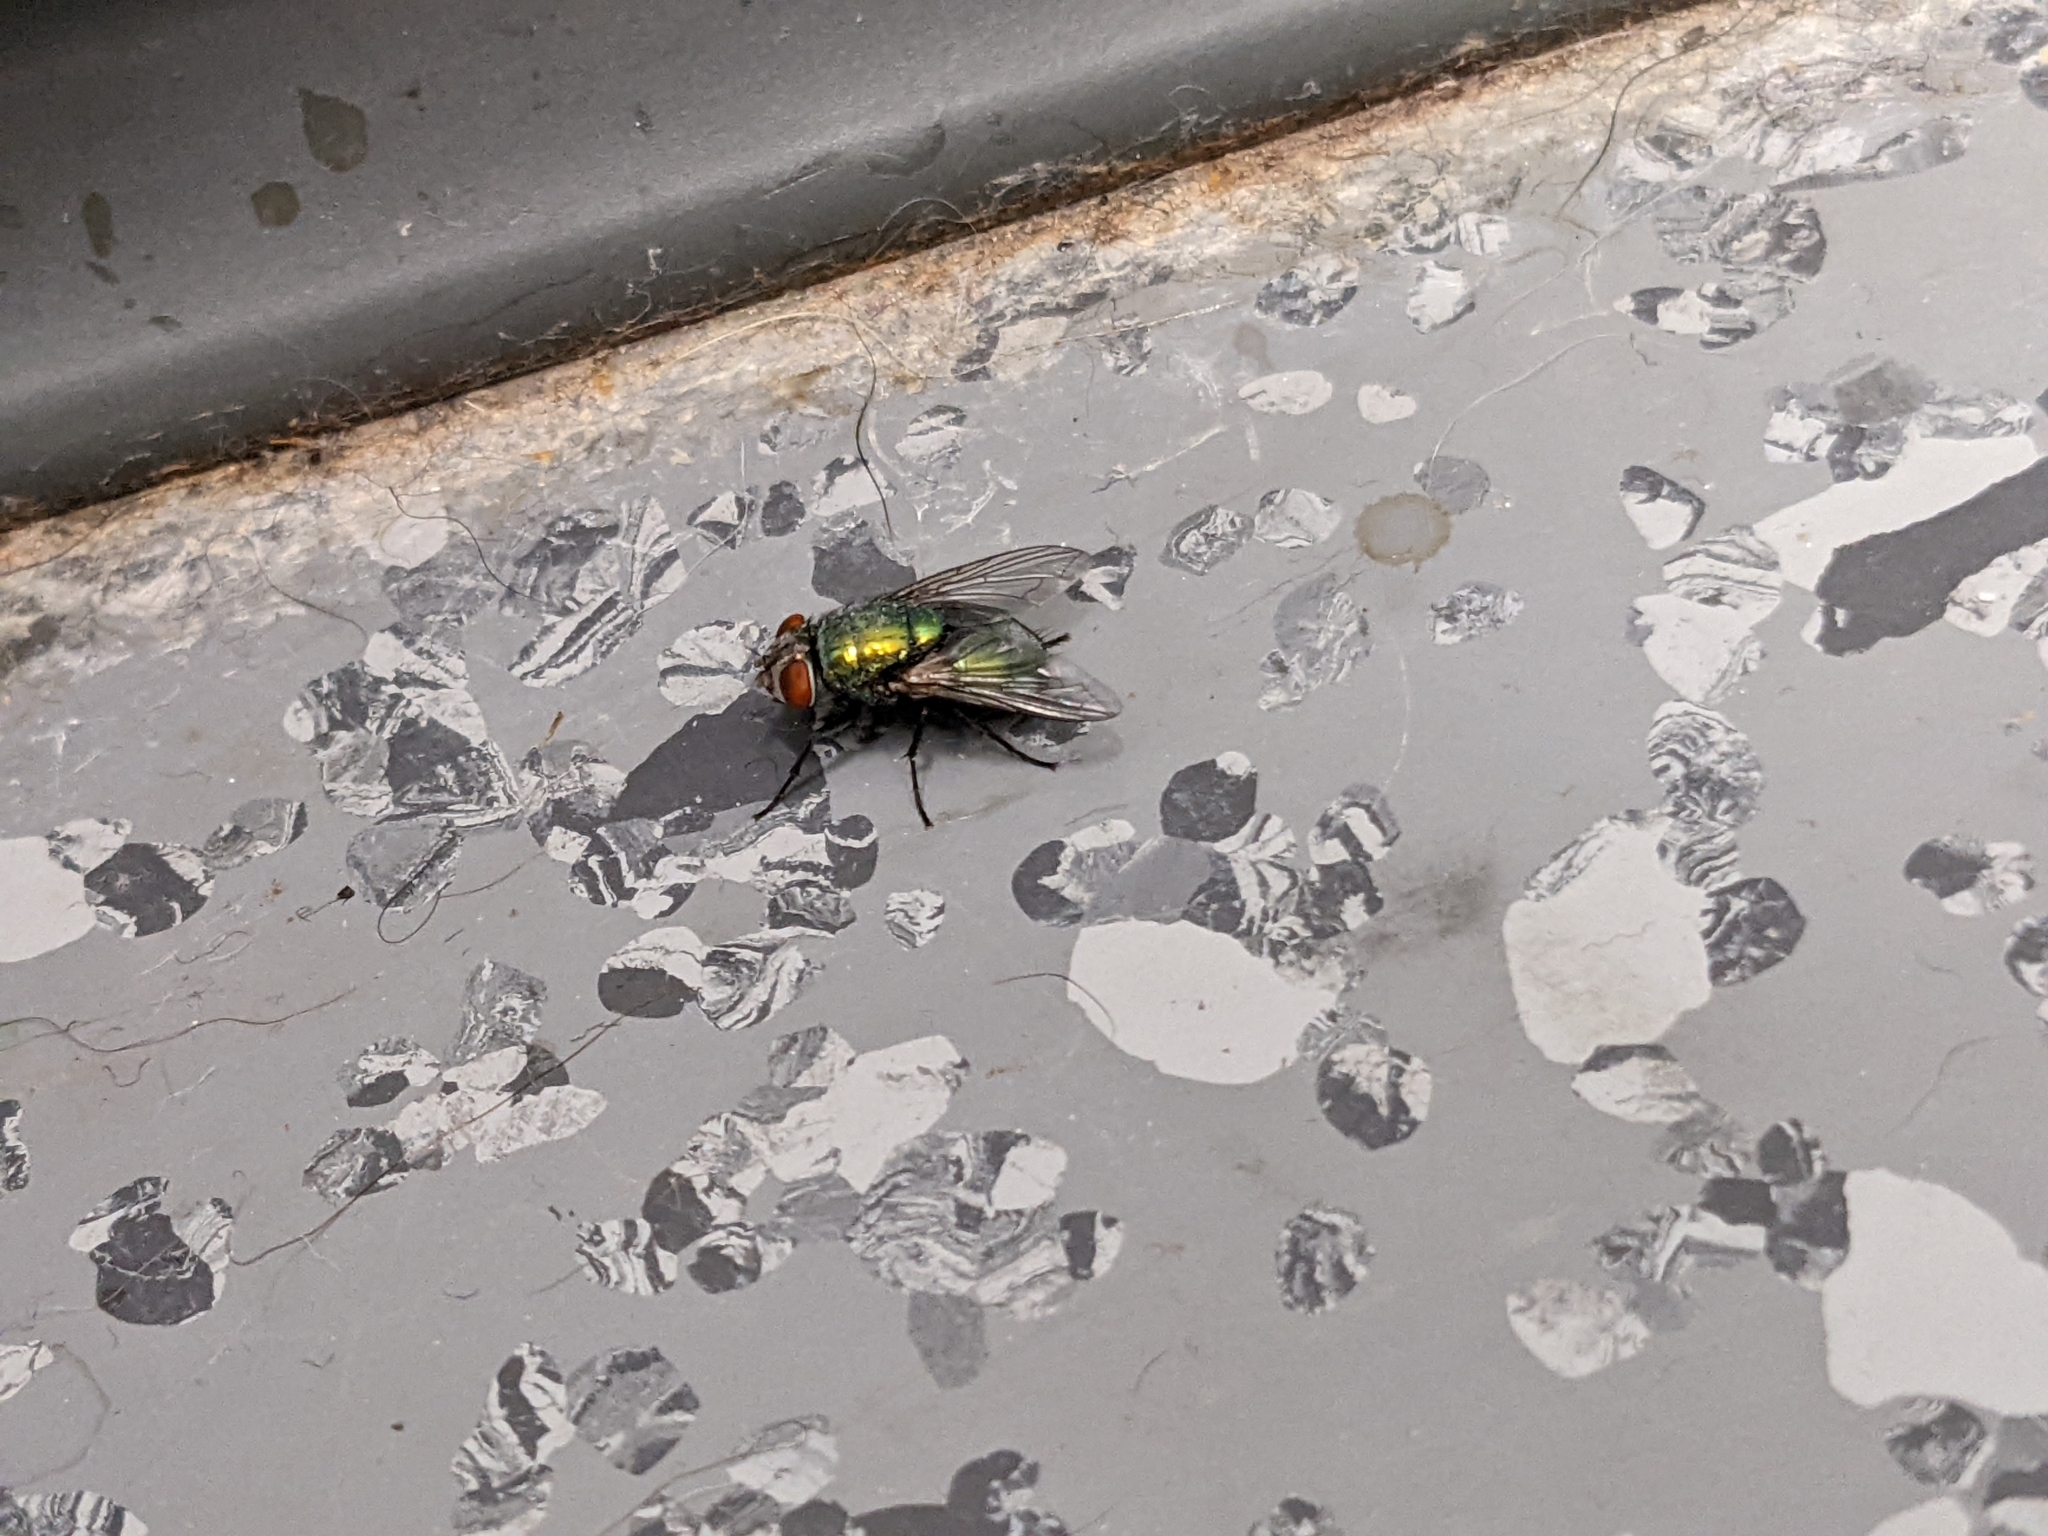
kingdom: Animalia
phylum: Arthropoda
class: Insecta
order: Diptera
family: Calliphoridae
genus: Lucilia
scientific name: Lucilia sericata
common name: Blow fly
